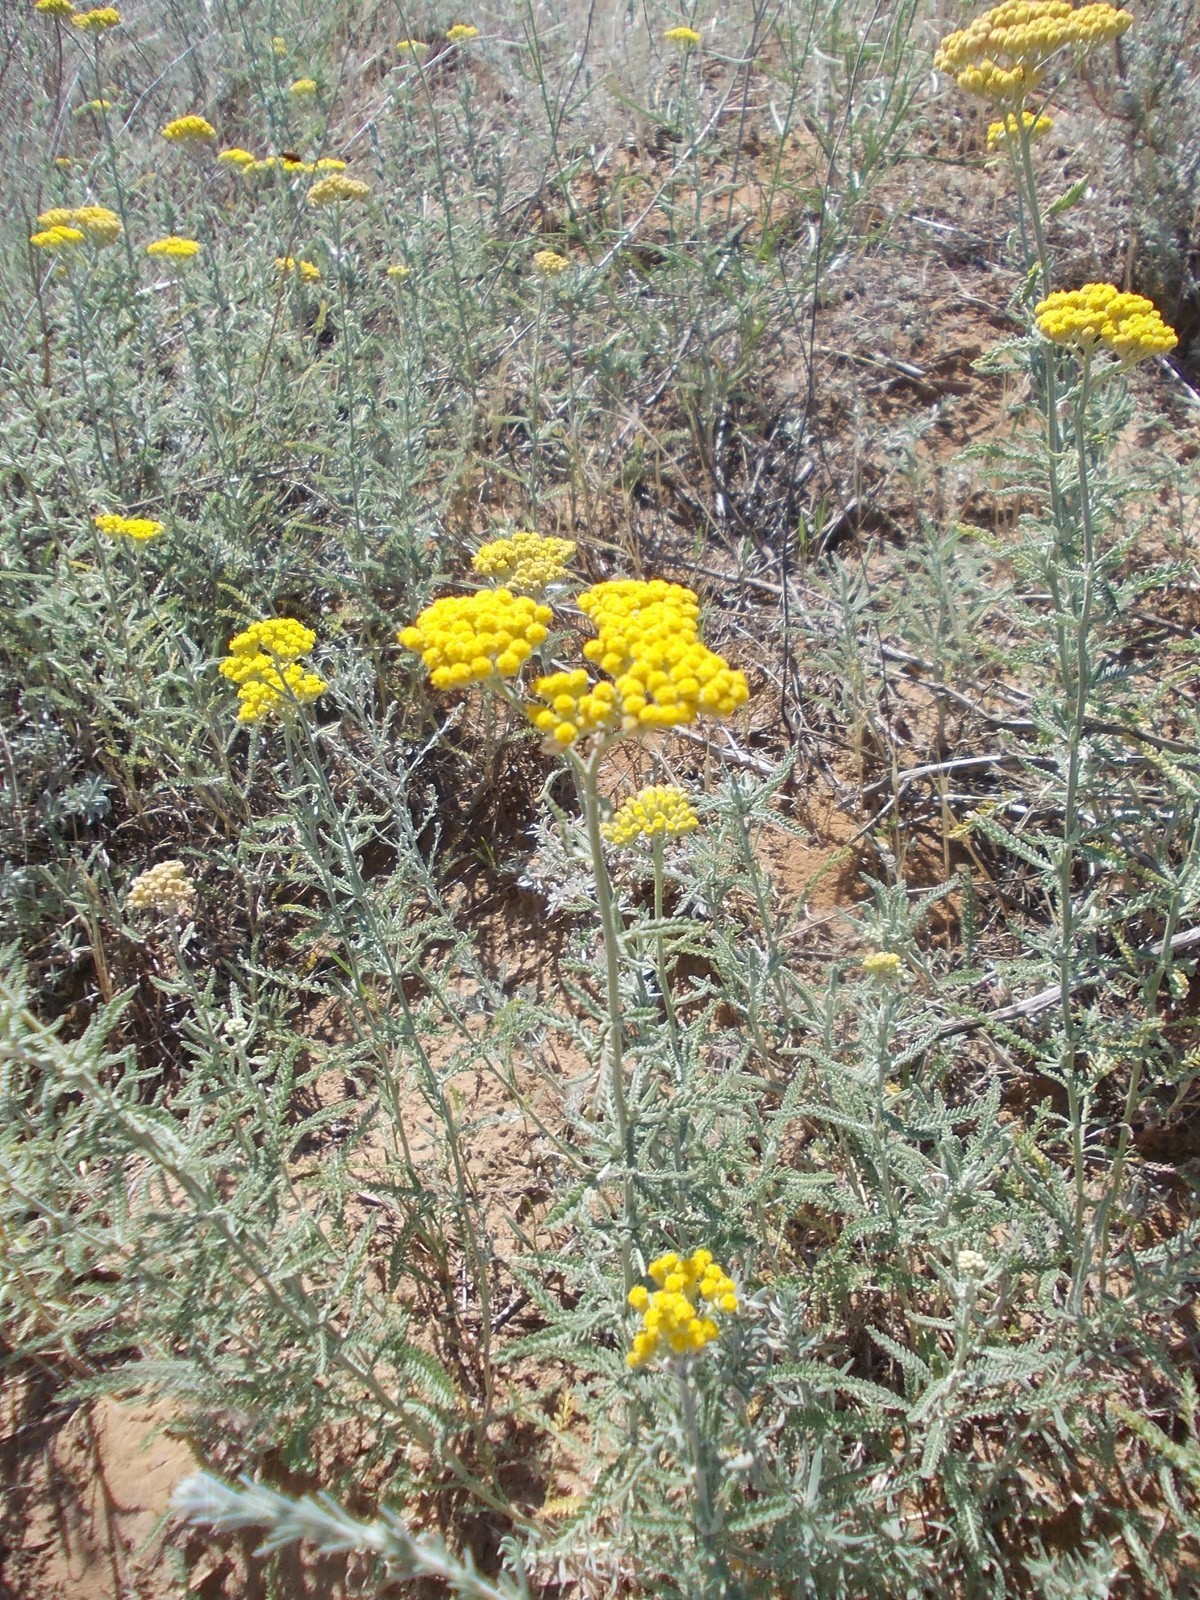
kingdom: Plantae
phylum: Tracheophyta
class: Magnoliopsida
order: Asterales
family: Asteraceae
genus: Achillea
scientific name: Achillea micrantha
